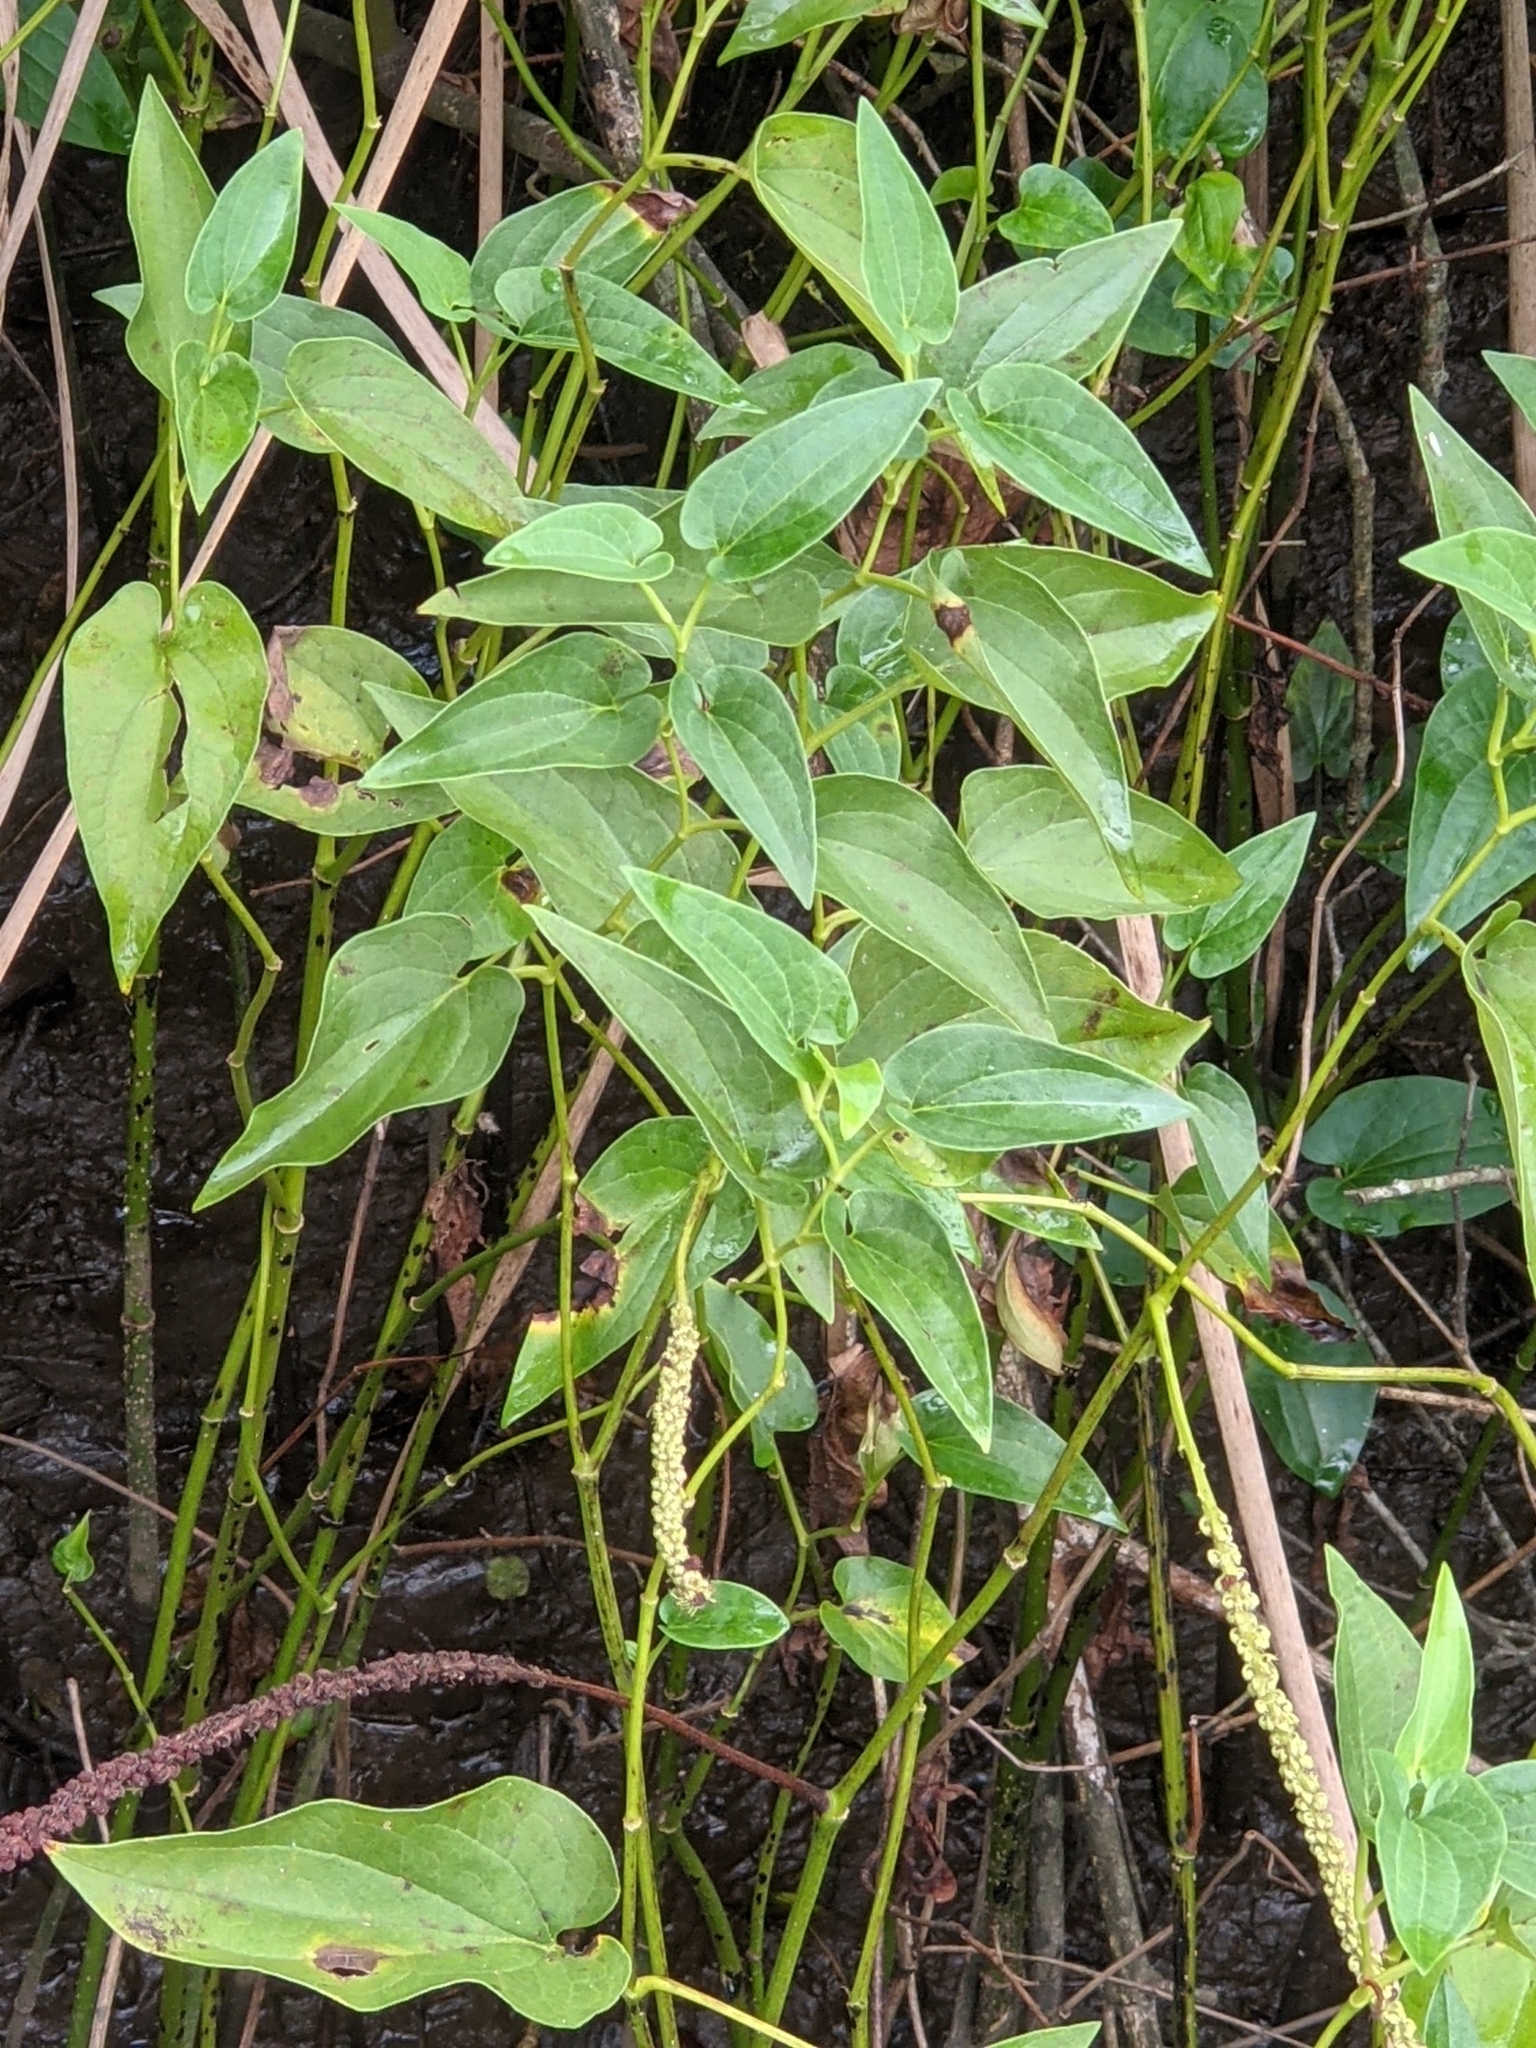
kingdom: Plantae
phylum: Tracheophyta
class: Magnoliopsida
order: Piperales
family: Saururaceae
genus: Saururus
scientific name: Saururus cernuus
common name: Lizard's-tail
